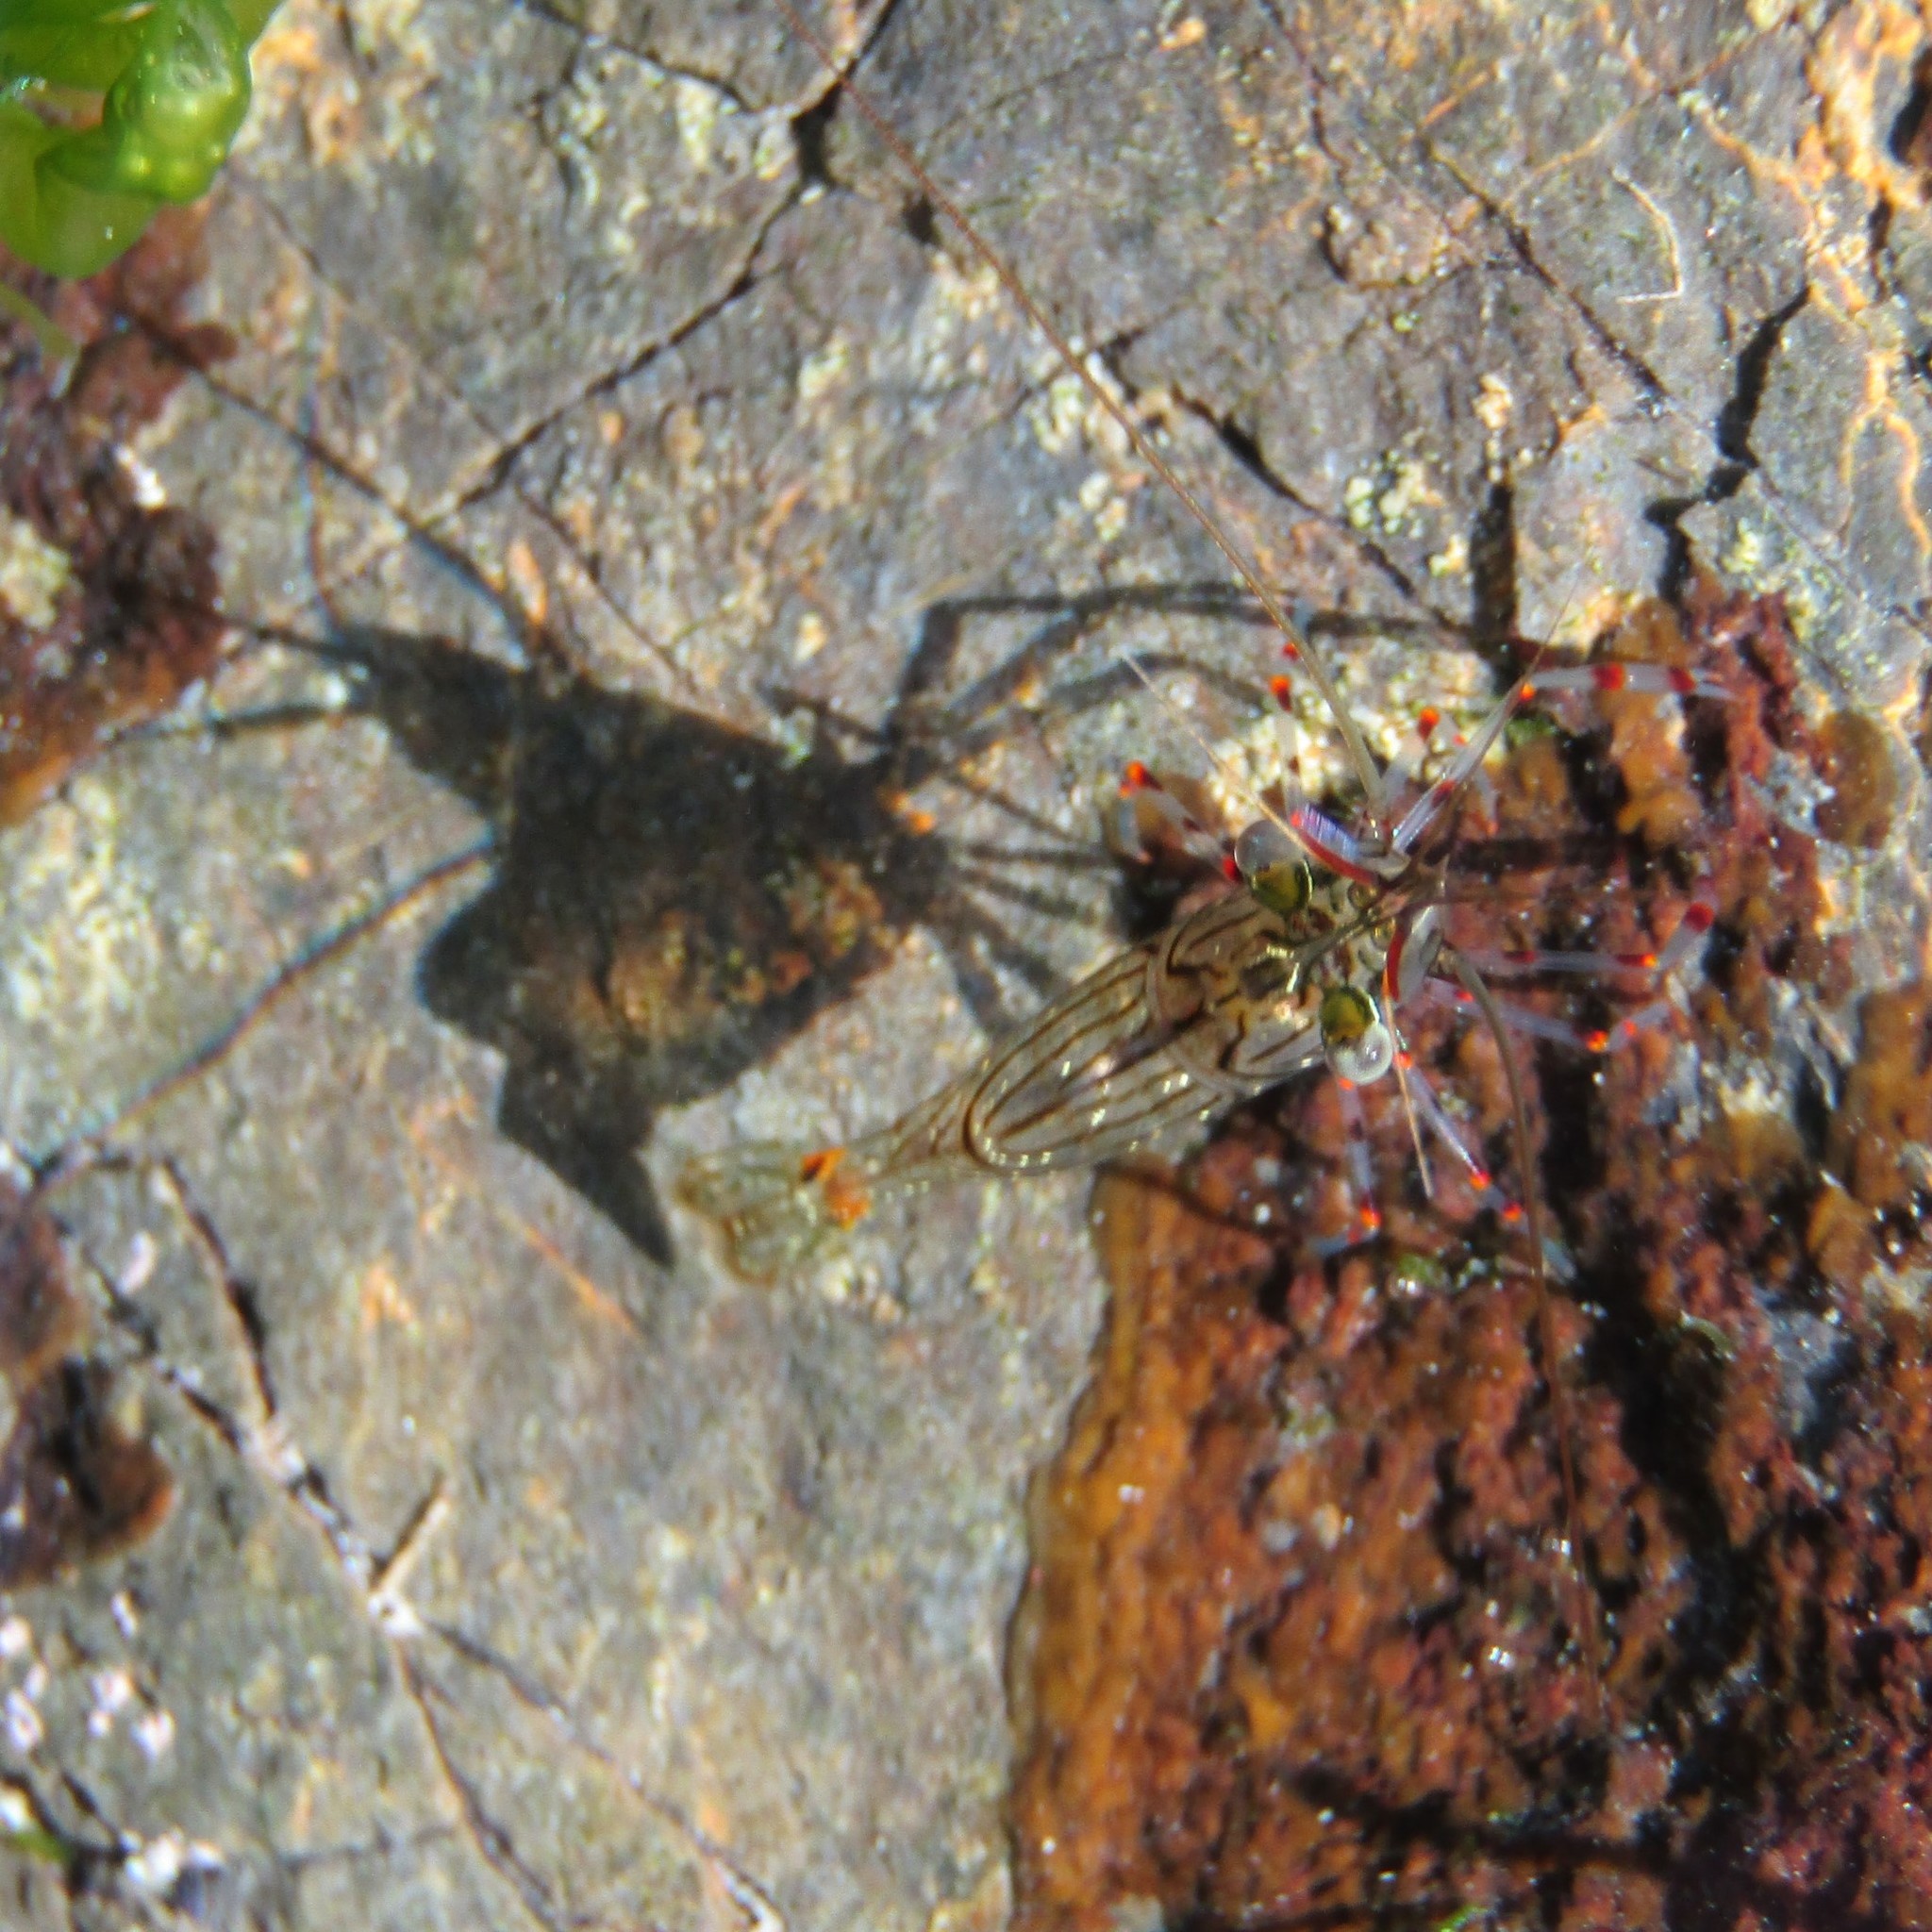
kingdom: Animalia
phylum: Arthropoda
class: Malacostraca
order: Decapoda
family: Palaemonidae
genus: Palaemon
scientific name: Palaemon affinis
